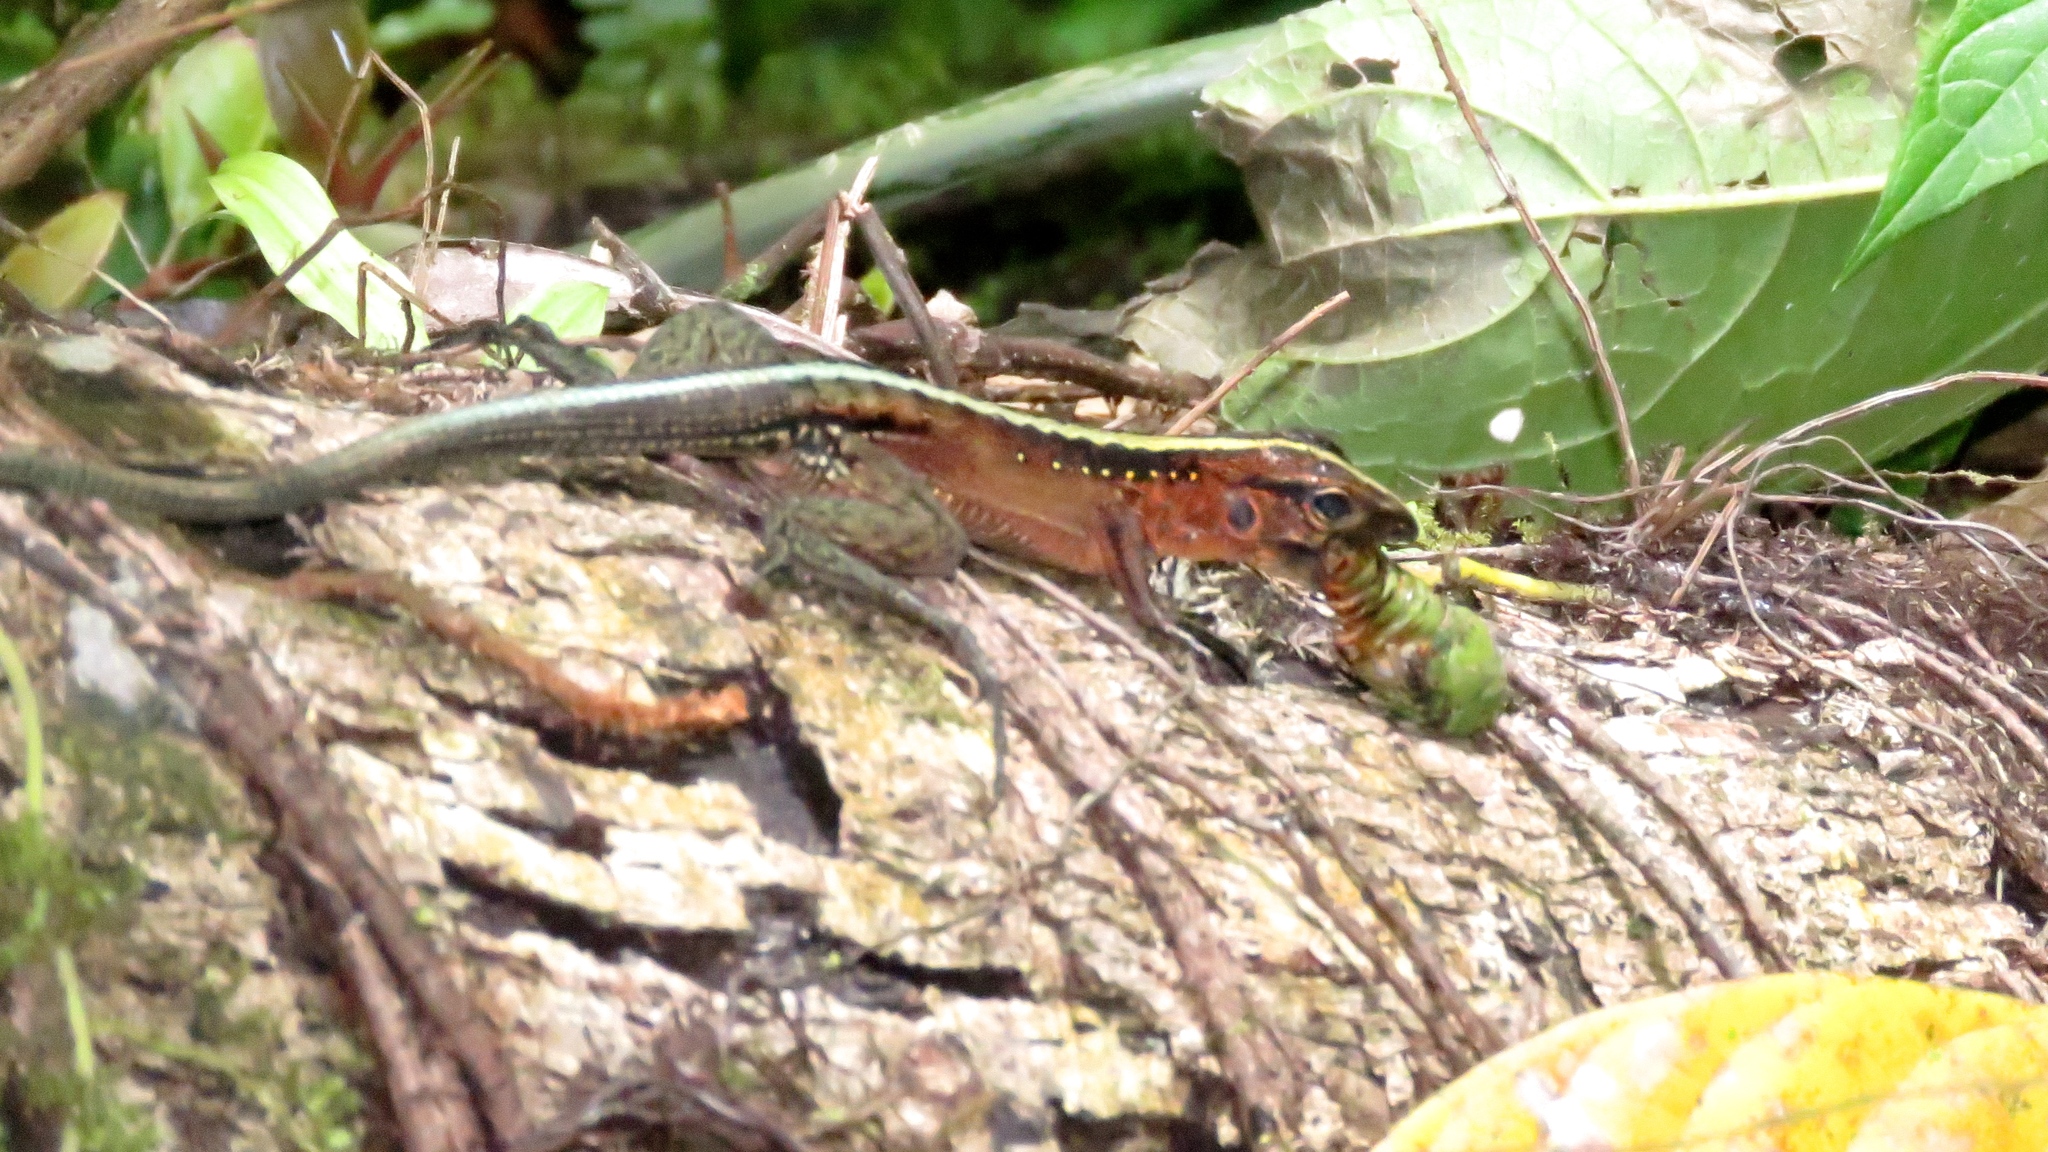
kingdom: Animalia
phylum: Chordata
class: Squamata
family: Teiidae
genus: Holcosus
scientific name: Holcosus festivus
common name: Middle american ameiva
